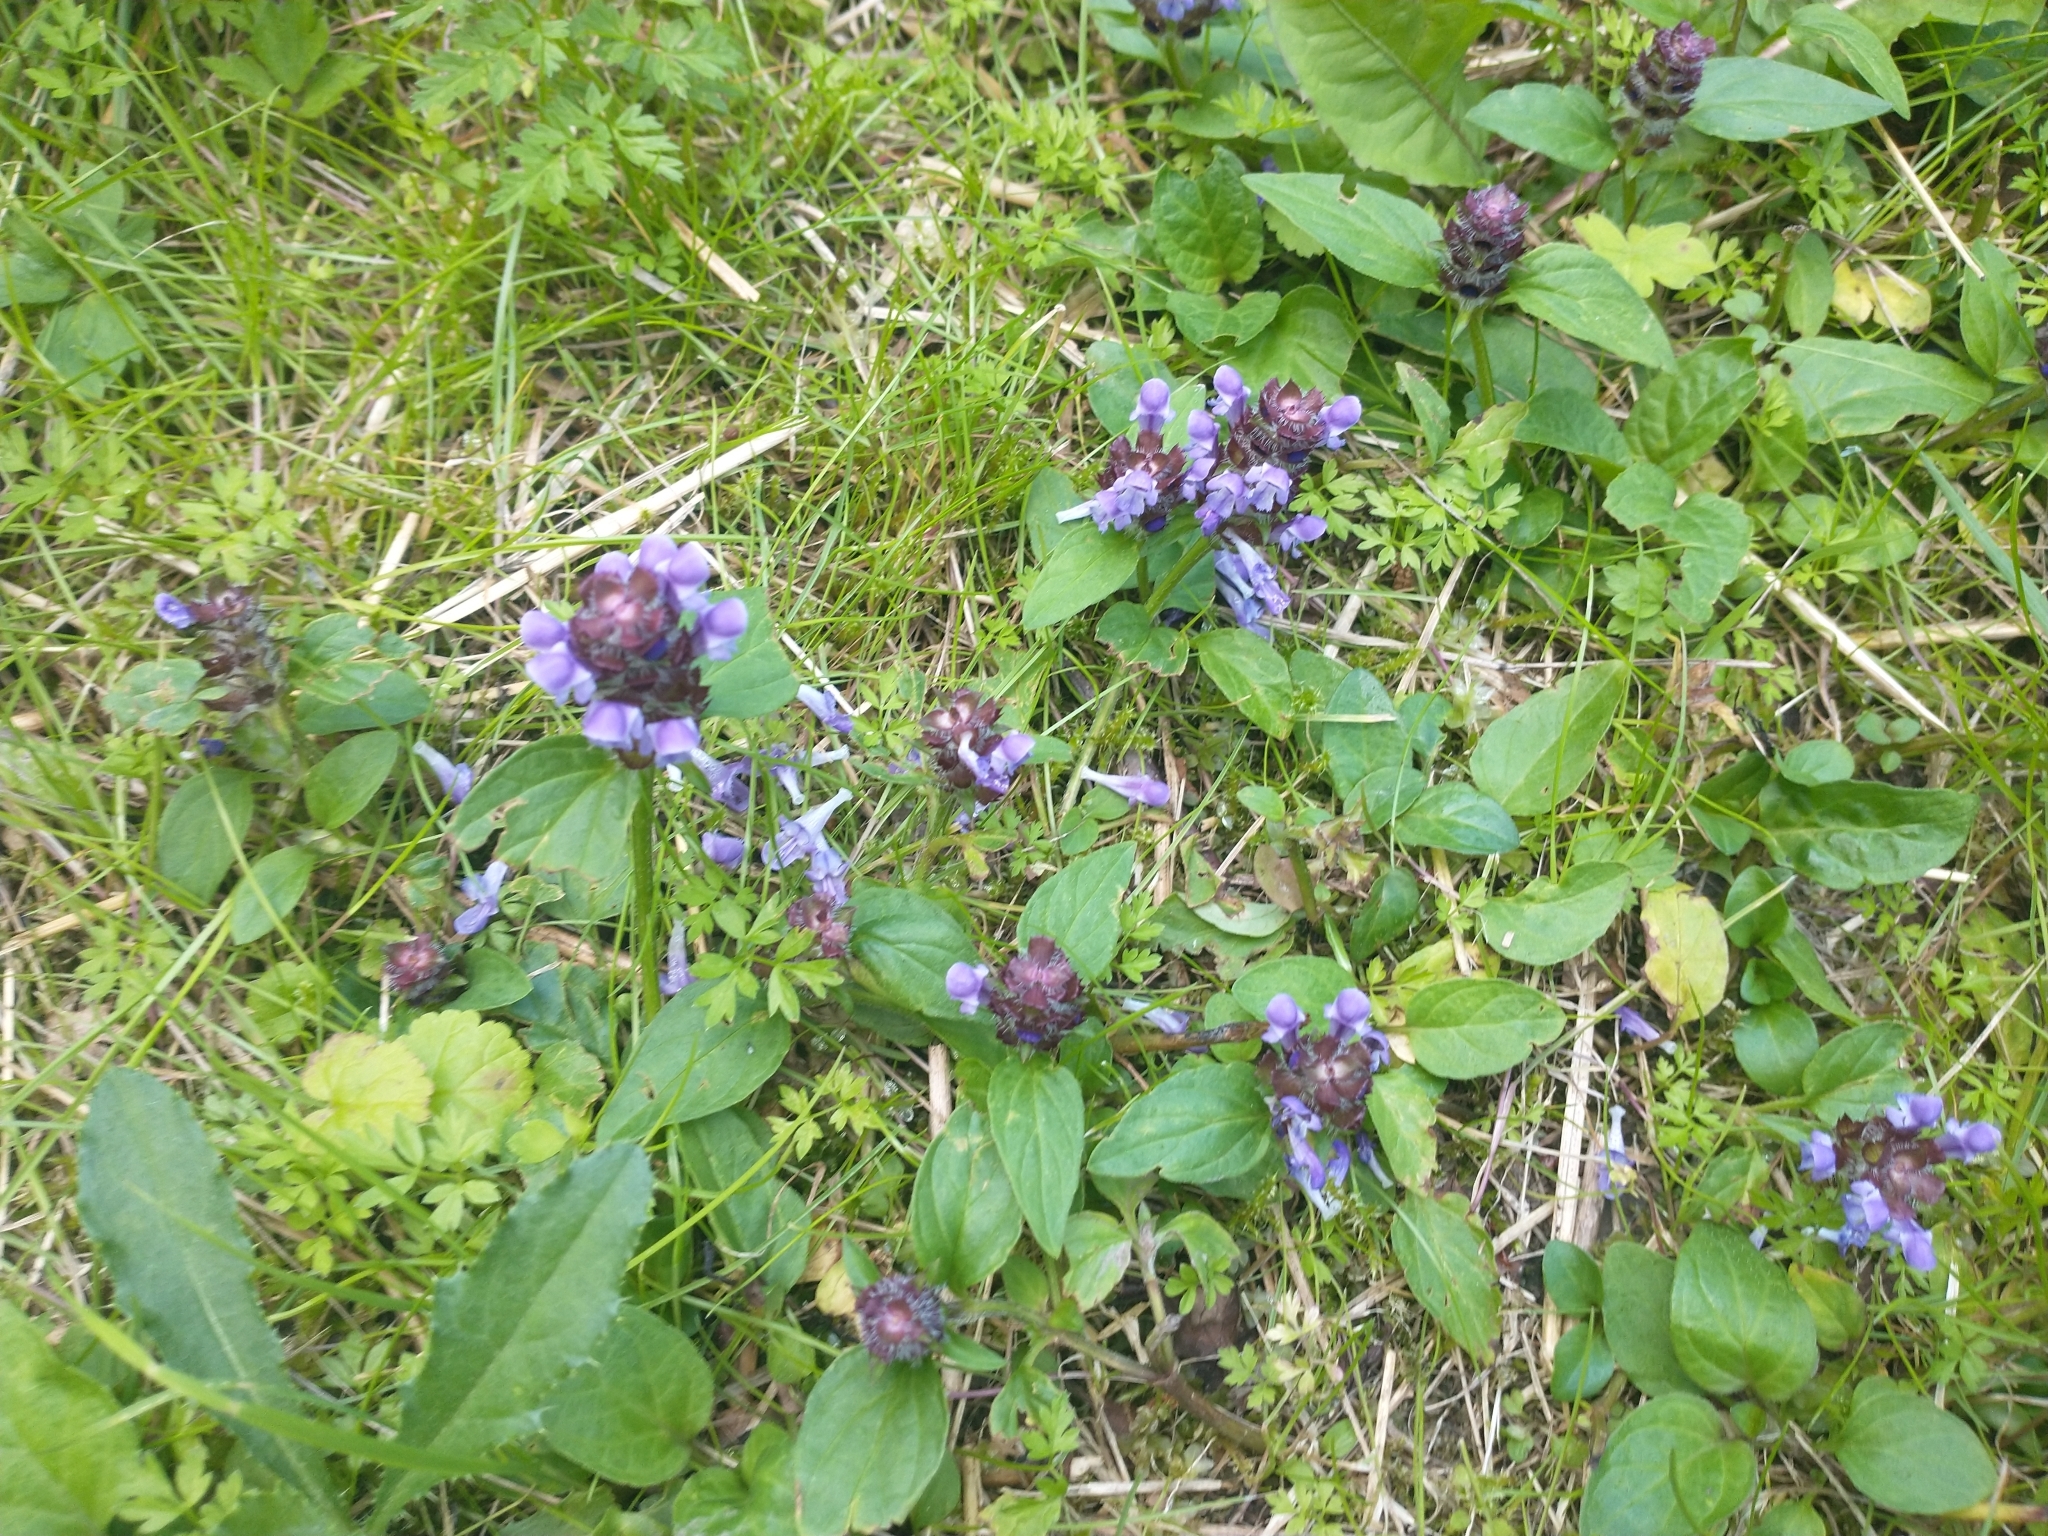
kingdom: Plantae
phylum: Tracheophyta
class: Magnoliopsida
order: Lamiales
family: Lamiaceae
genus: Prunella
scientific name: Prunella vulgaris
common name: Heal-all
